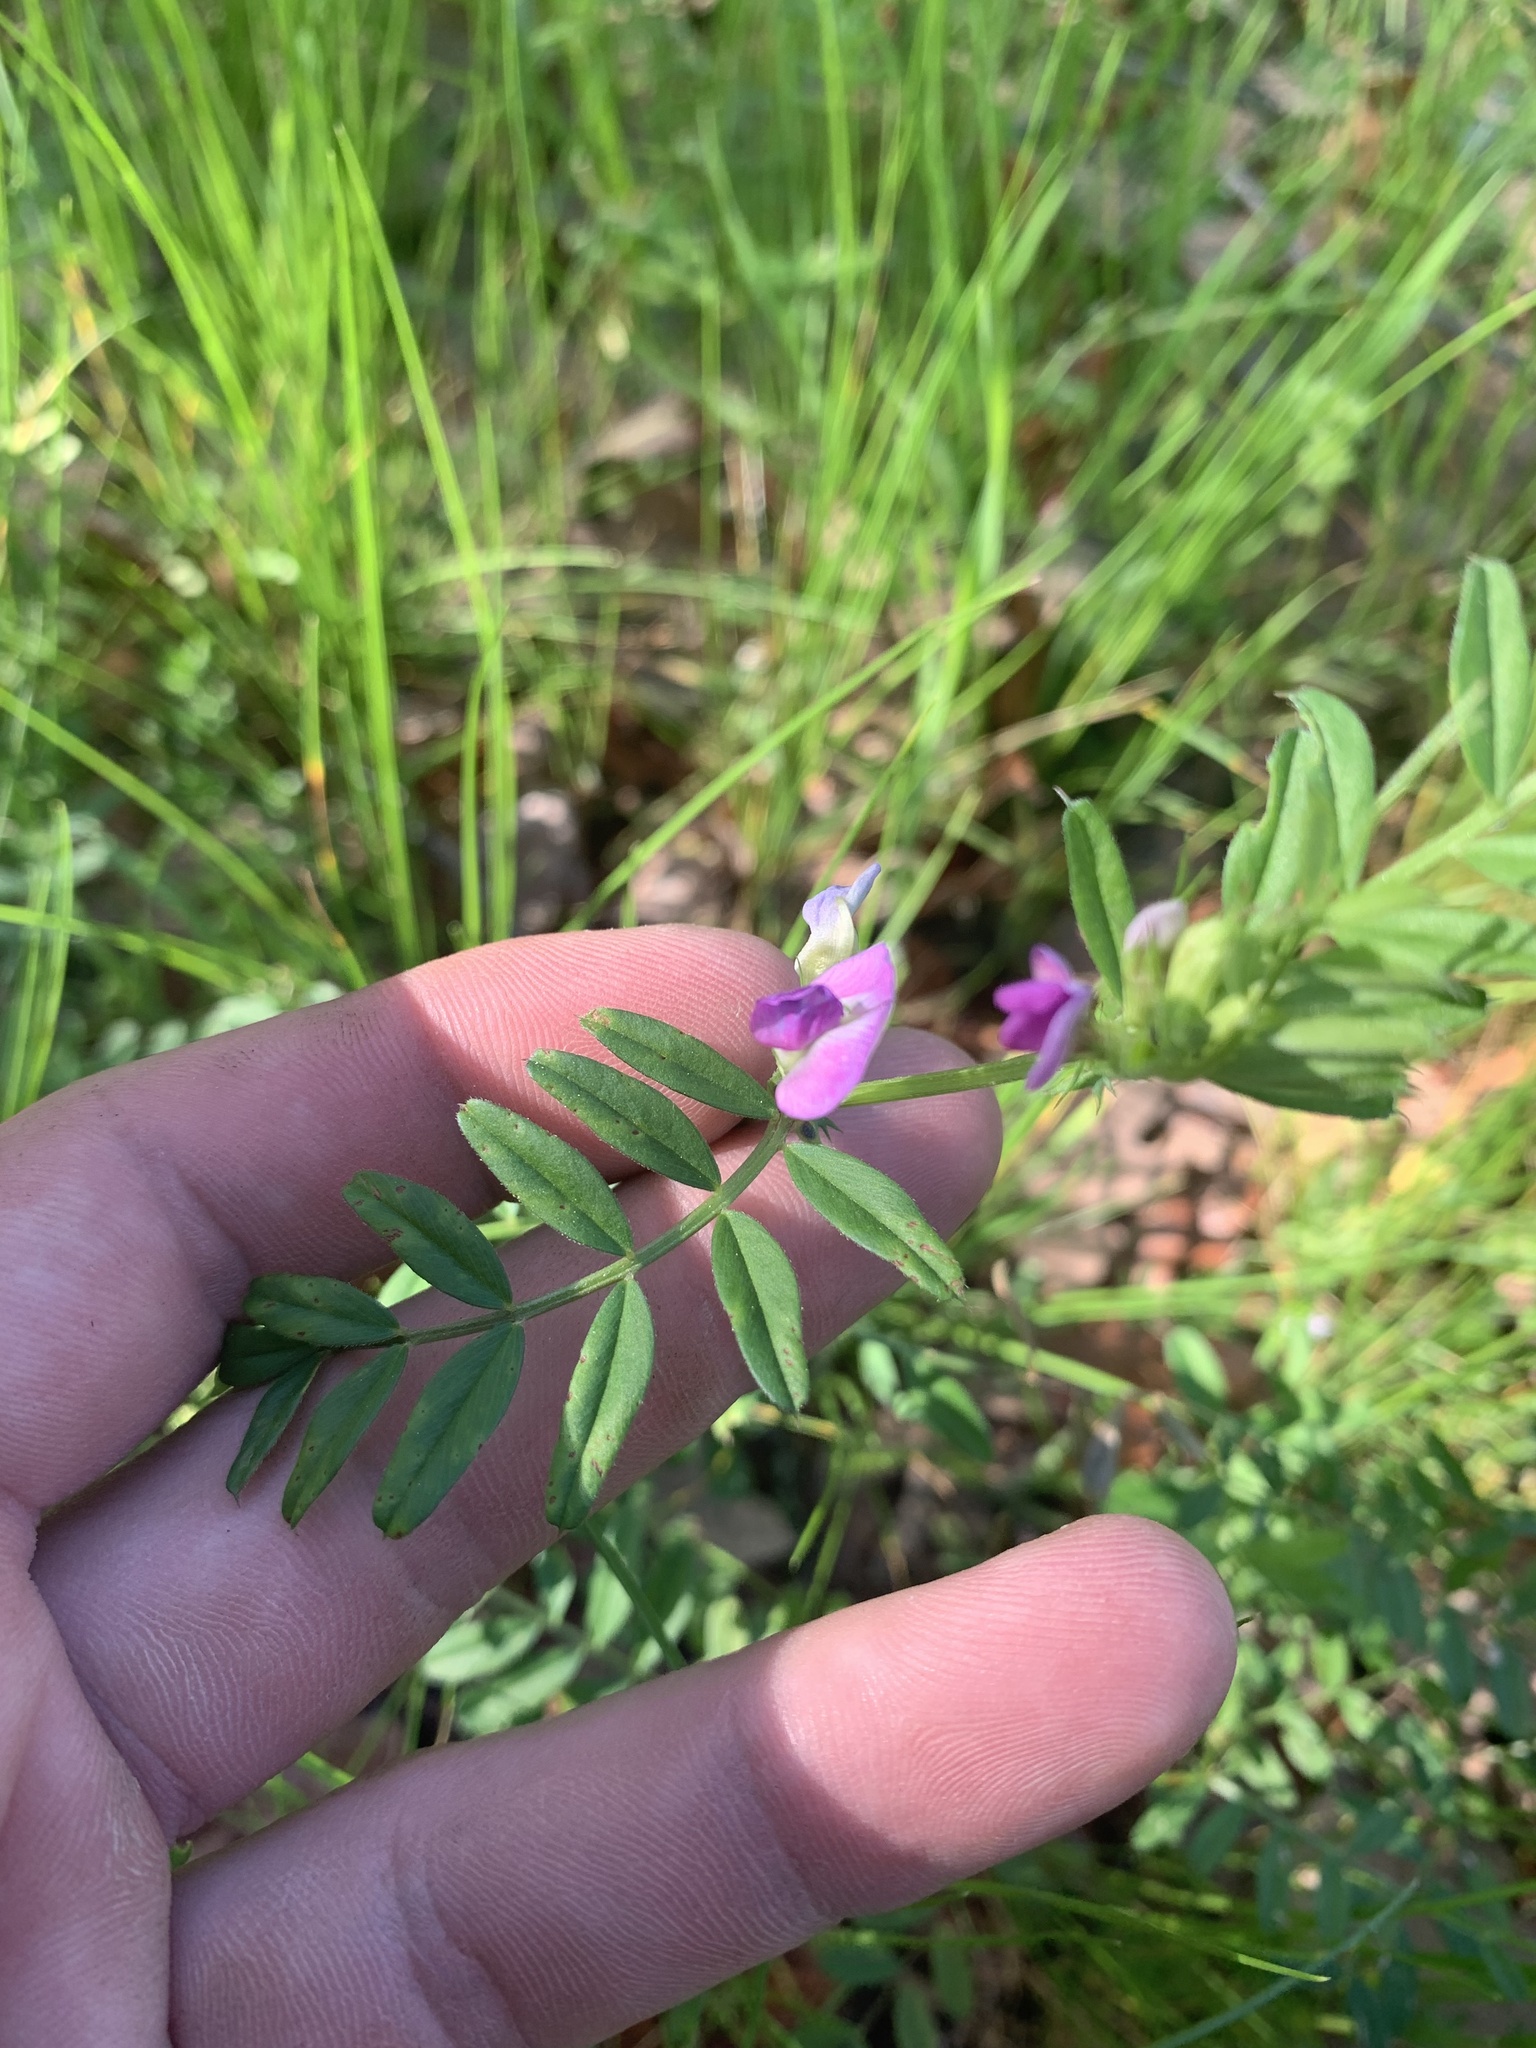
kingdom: Plantae
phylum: Tracheophyta
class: Magnoliopsida
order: Fabales
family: Fabaceae
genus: Vicia
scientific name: Vicia sativa
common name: Garden vetch
